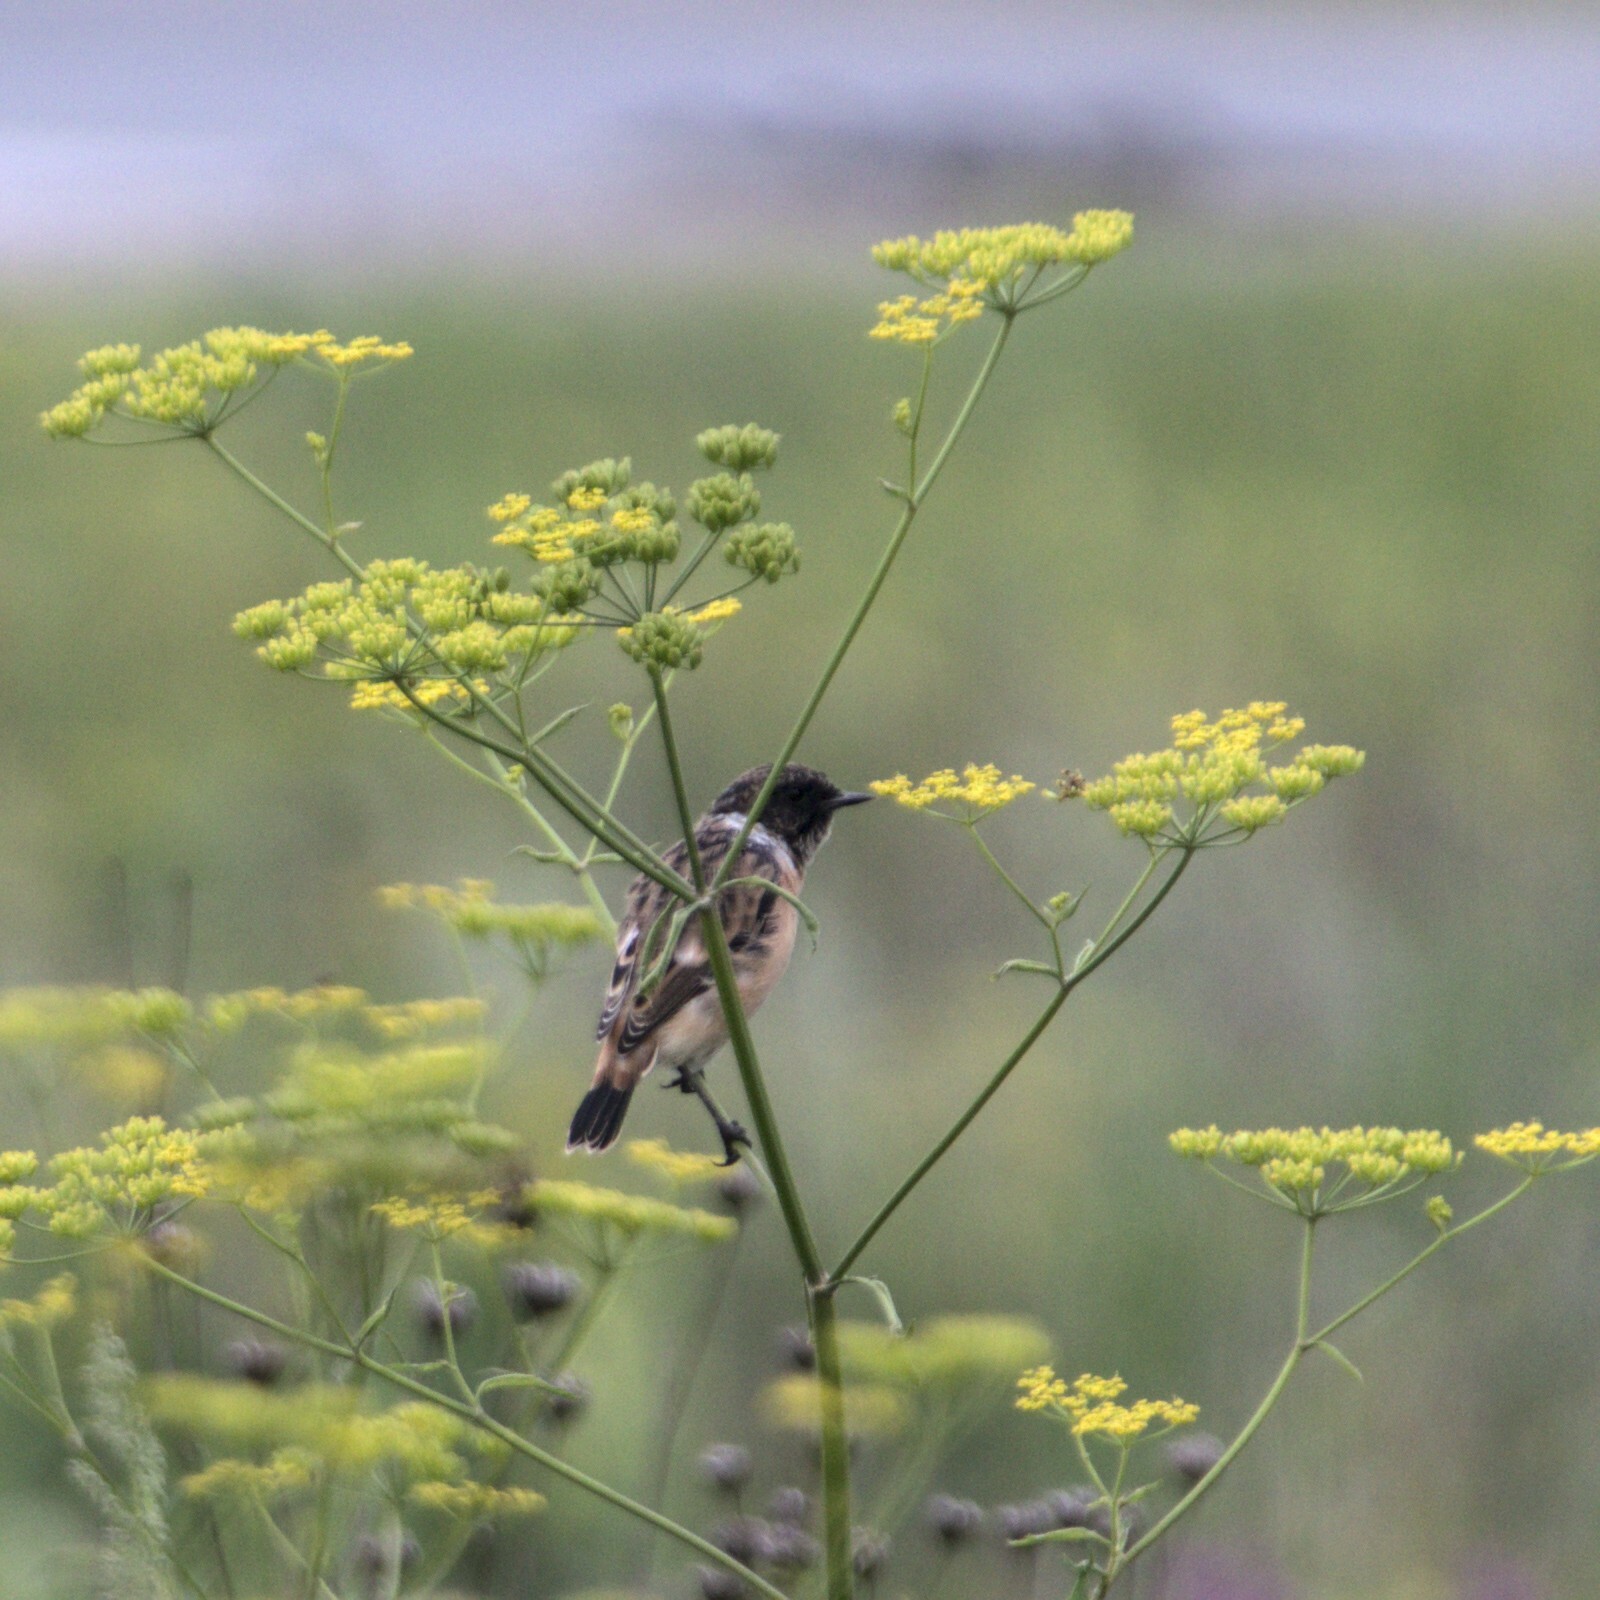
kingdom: Animalia
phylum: Chordata
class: Aves
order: Passeriformes
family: Muscicapidae
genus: Saxicola
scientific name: Saxicola maurus
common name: Siberian stonechat
